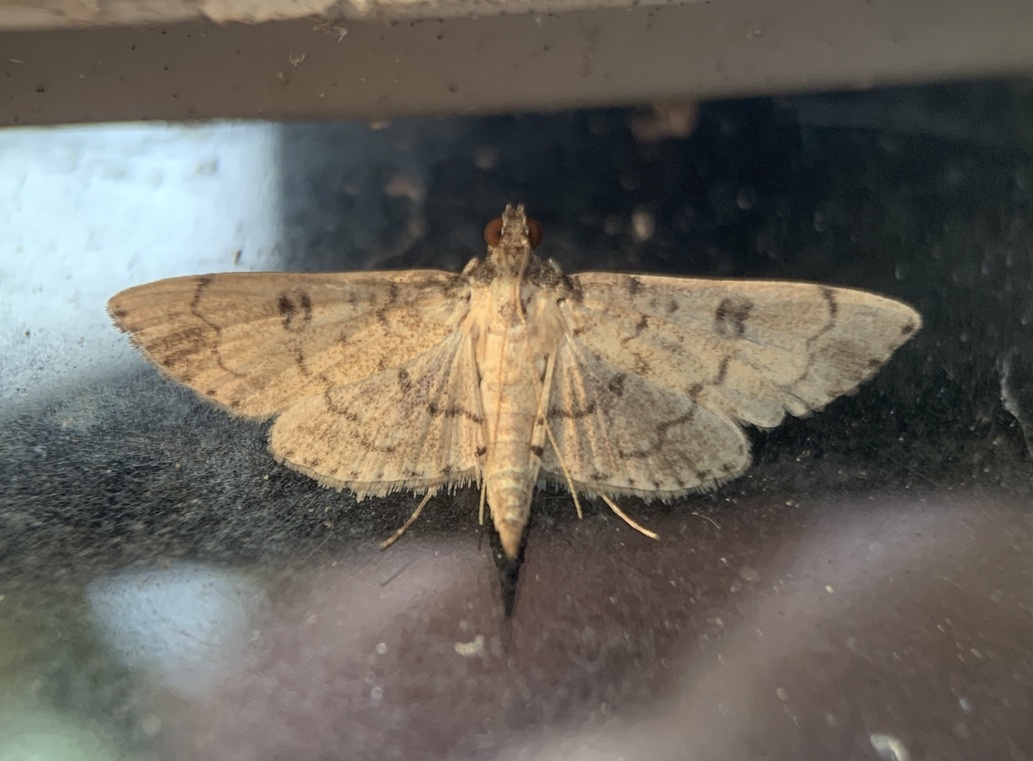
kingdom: Animalia
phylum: Arthropoda
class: Insecta
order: Lepidoptera
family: Crambidae
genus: Nacoleia
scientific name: Nacoleia charesalis
